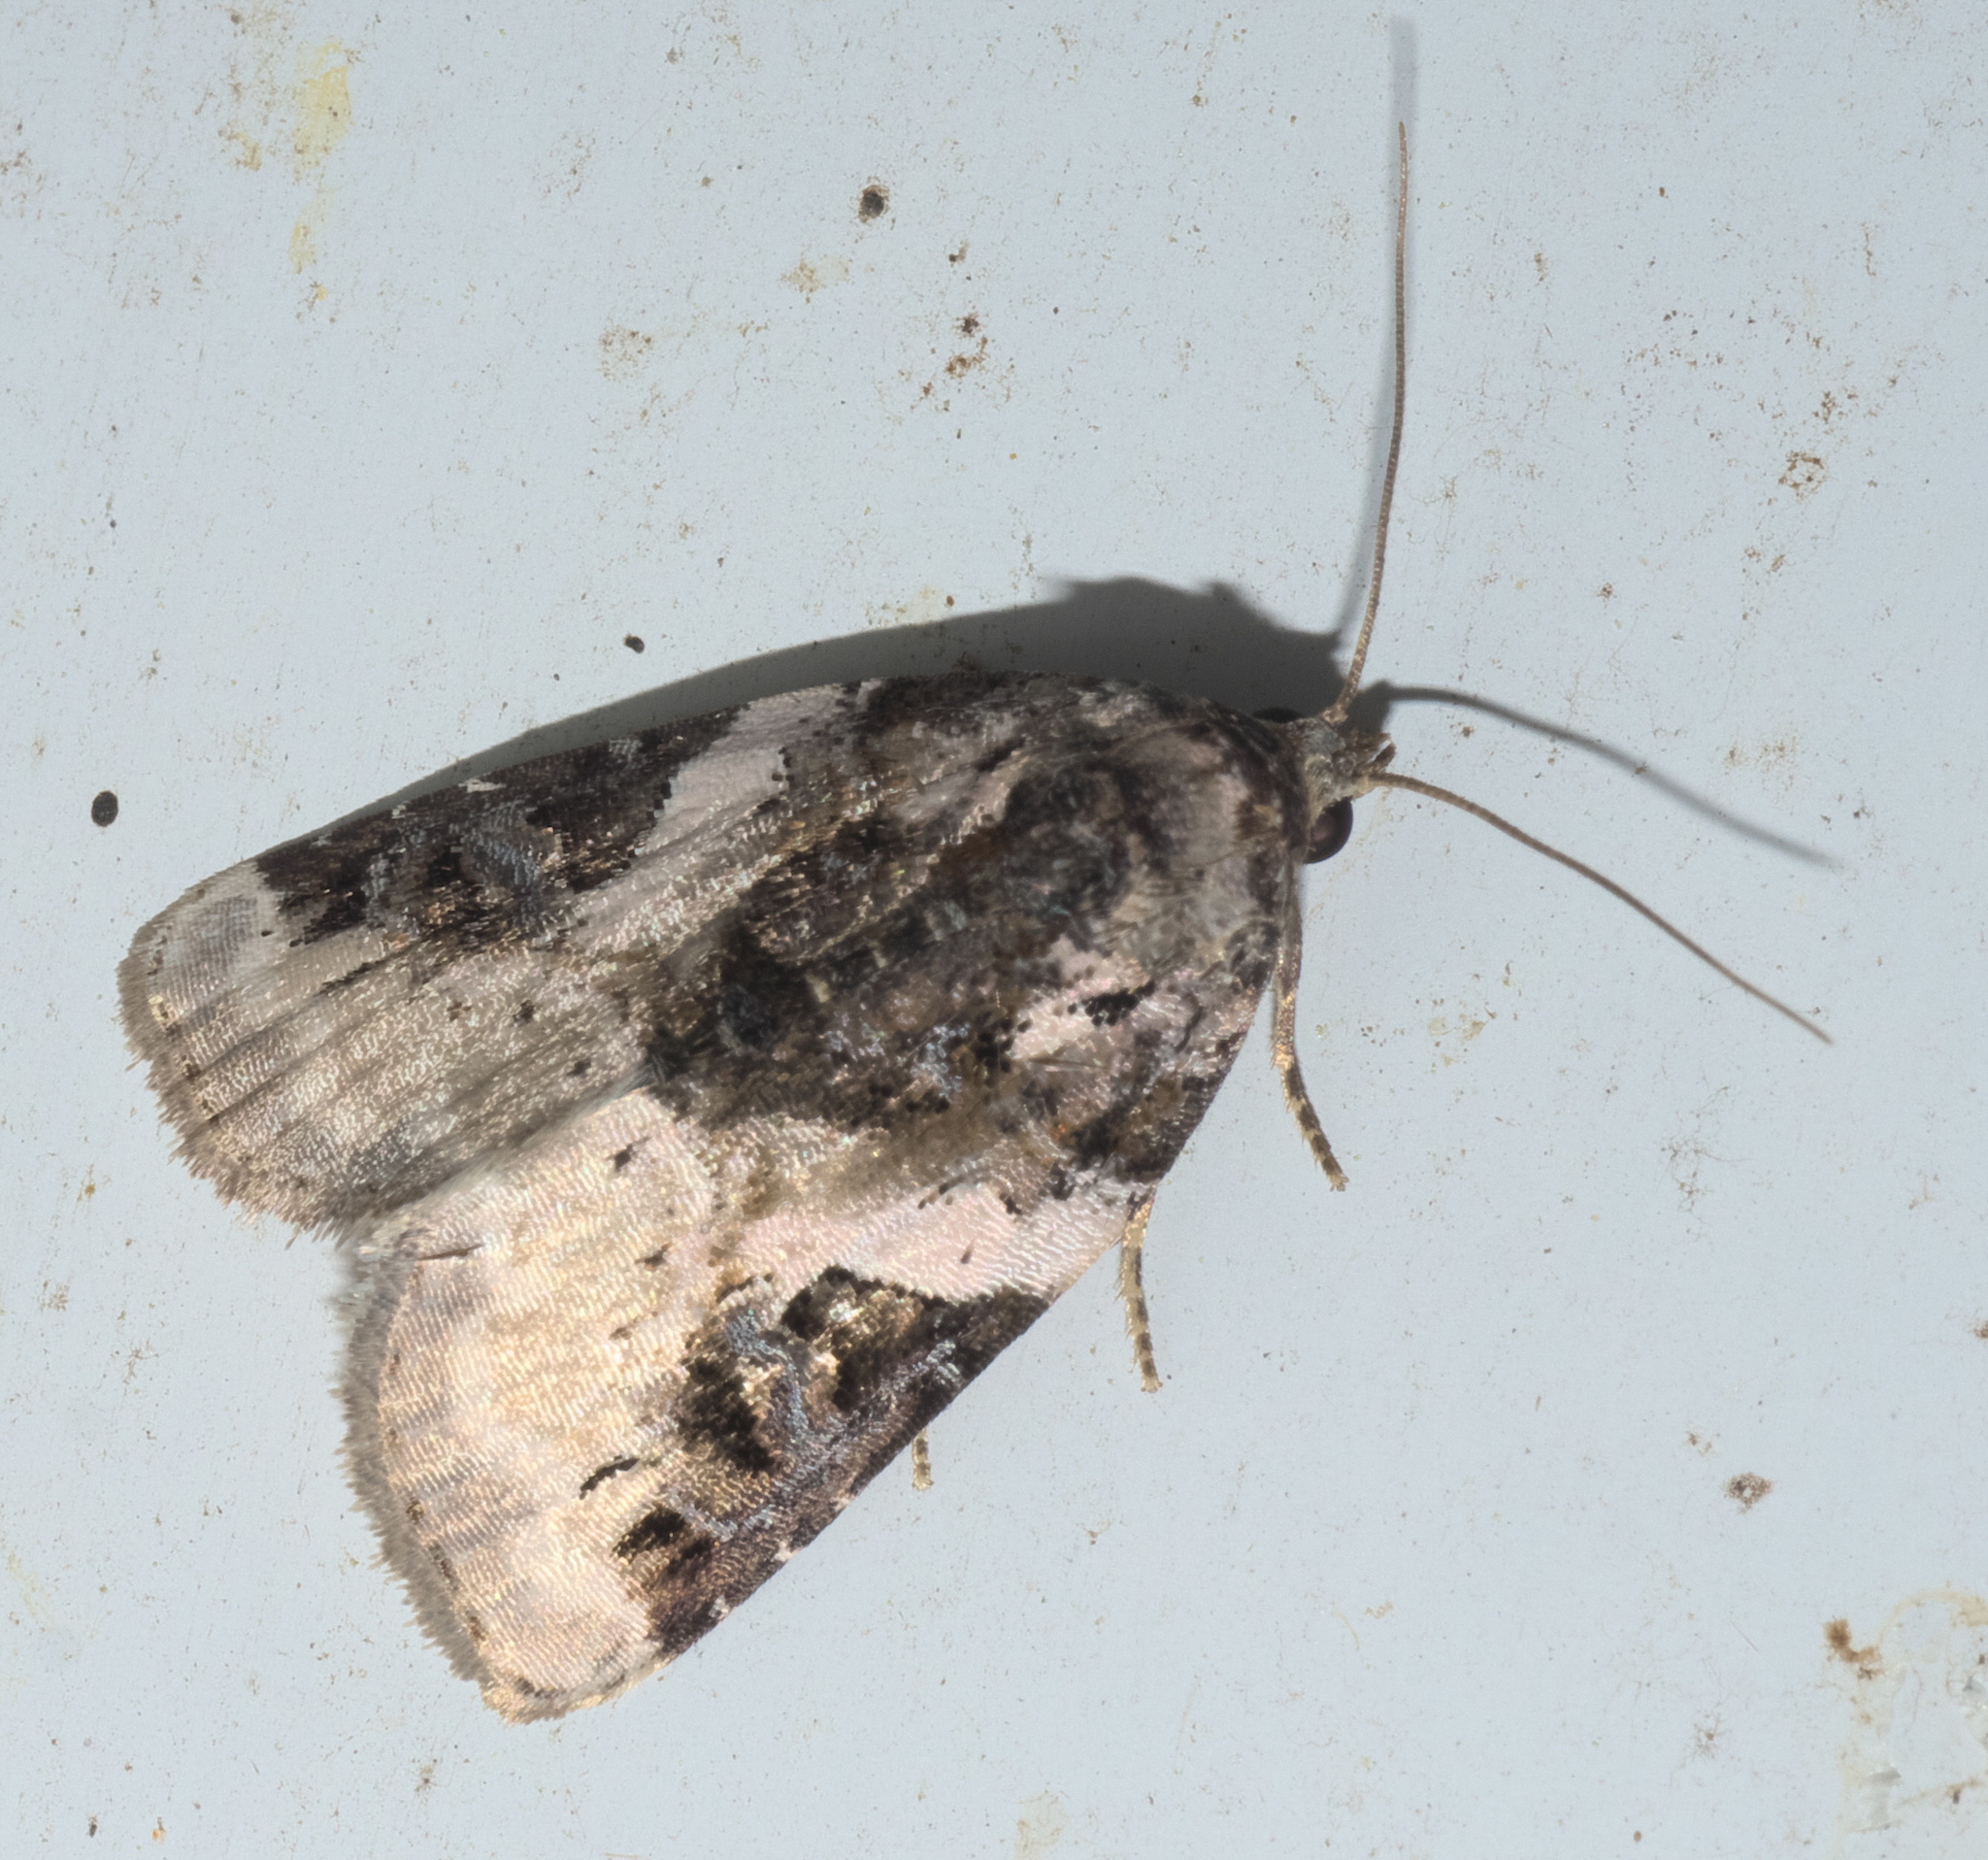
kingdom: Animalia
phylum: Arthropoda
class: Insecta
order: Lepidoptera
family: Noctuidae
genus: Pseudeustrotia
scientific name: Pseudeustrotia carneola
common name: Pink-barred lithacodia moth
